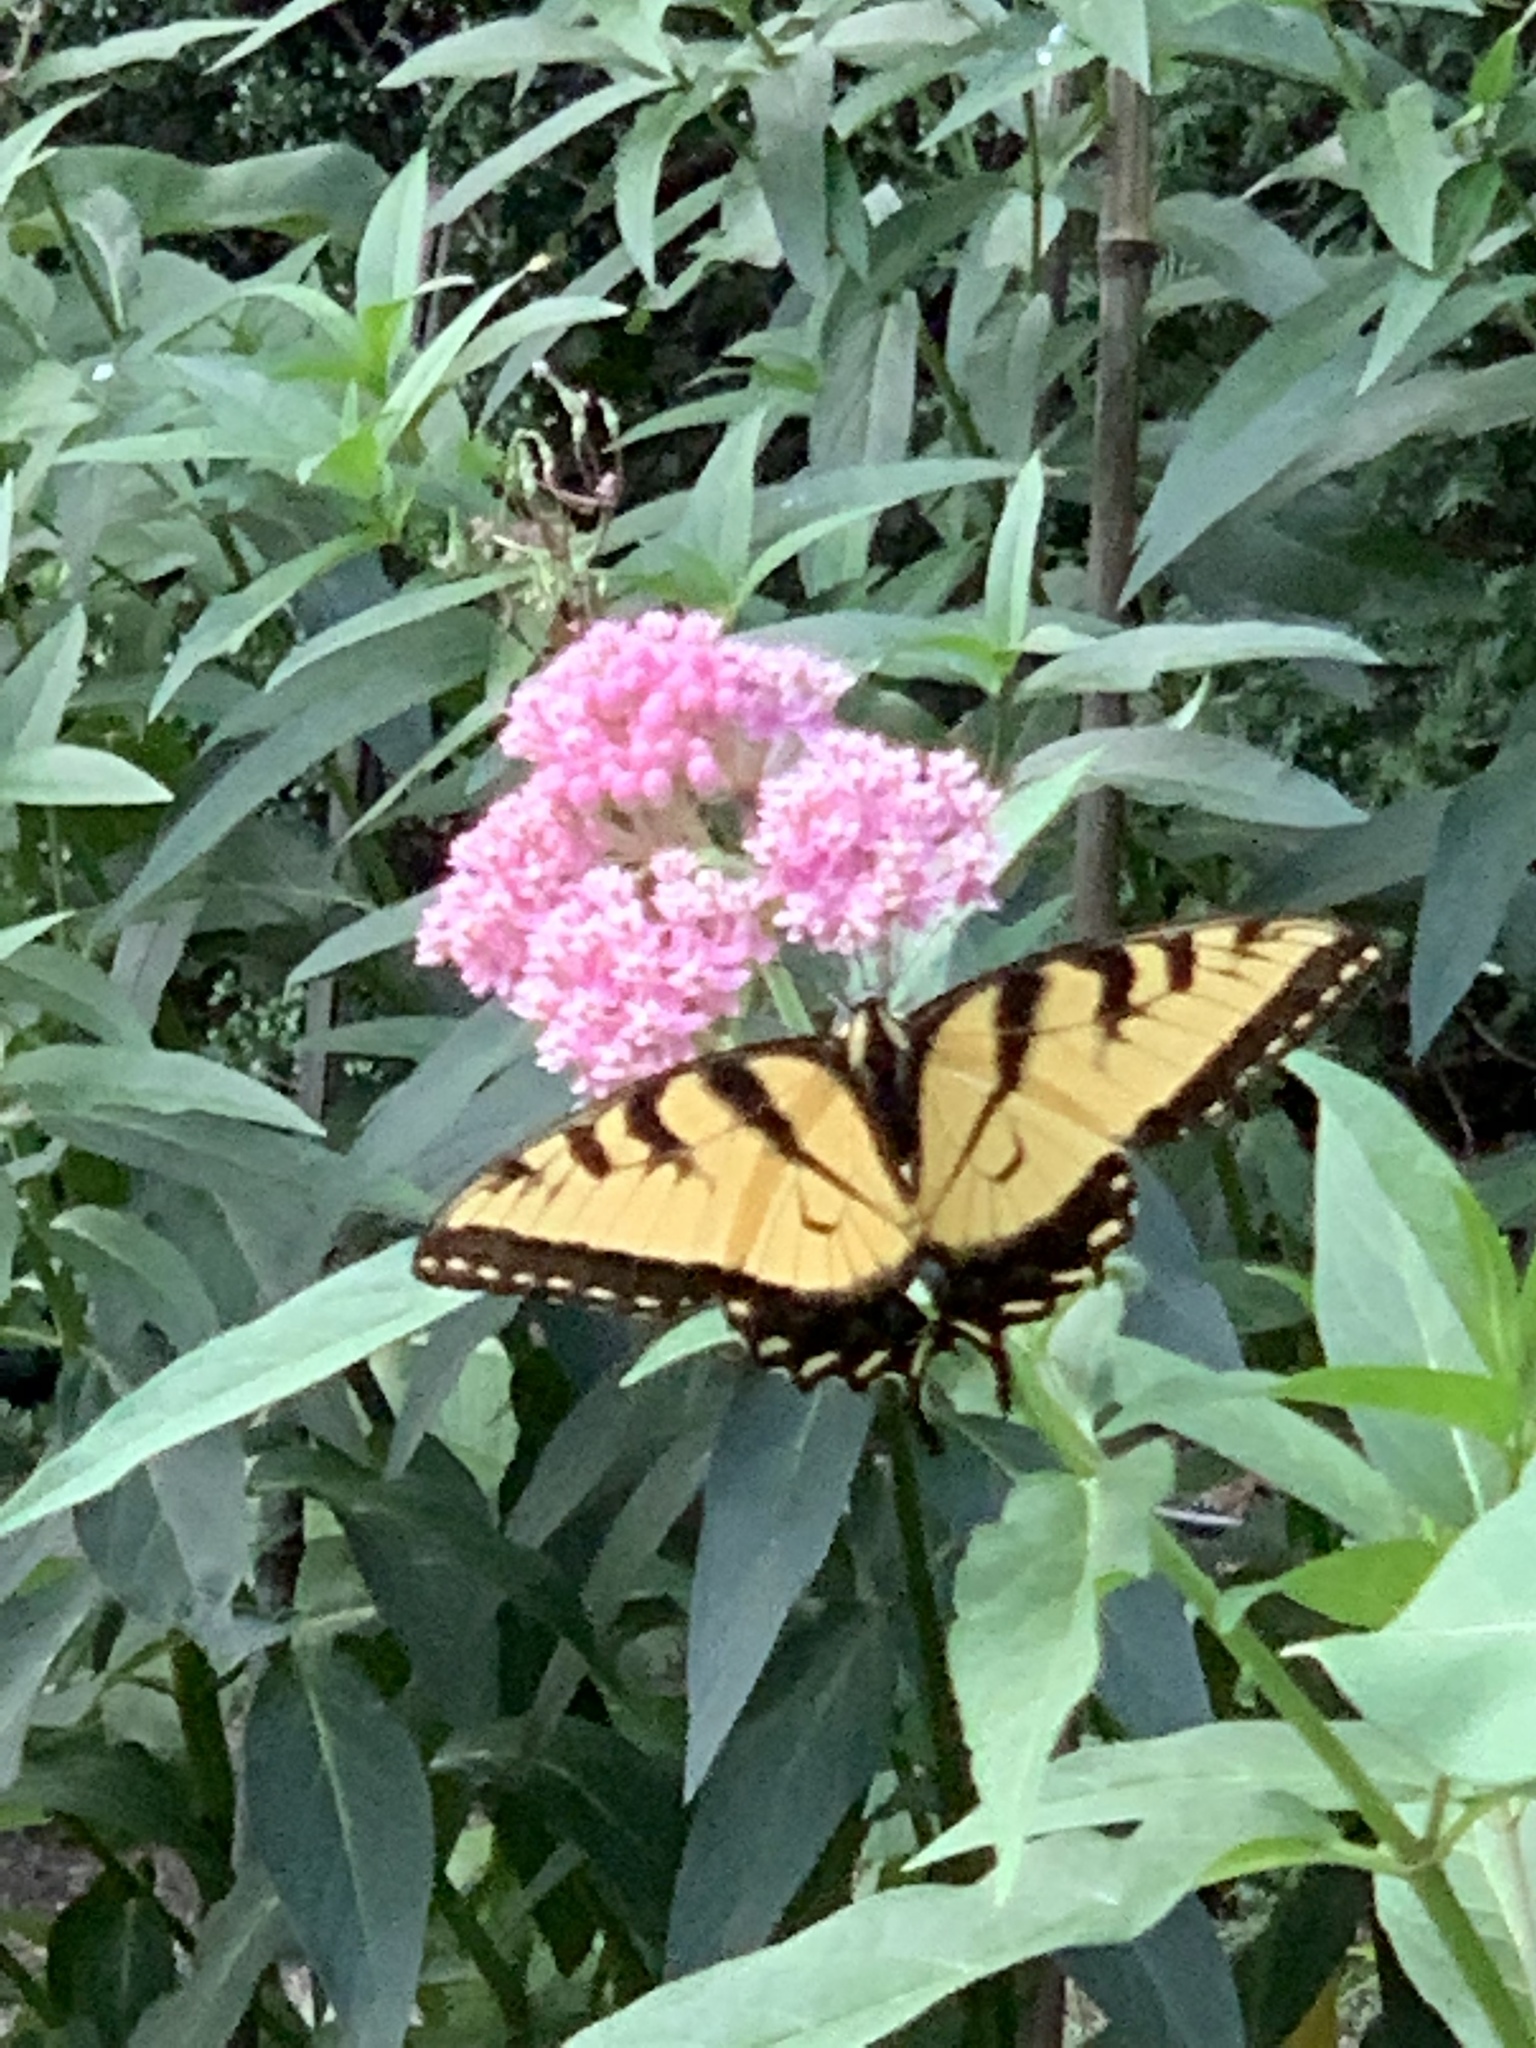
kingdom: Animalia
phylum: Arthropoda
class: Insecta
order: Lepidoptera
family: Papilionidae
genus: Papilio
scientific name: Papilio glaucus
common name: Tiger swallowtail
